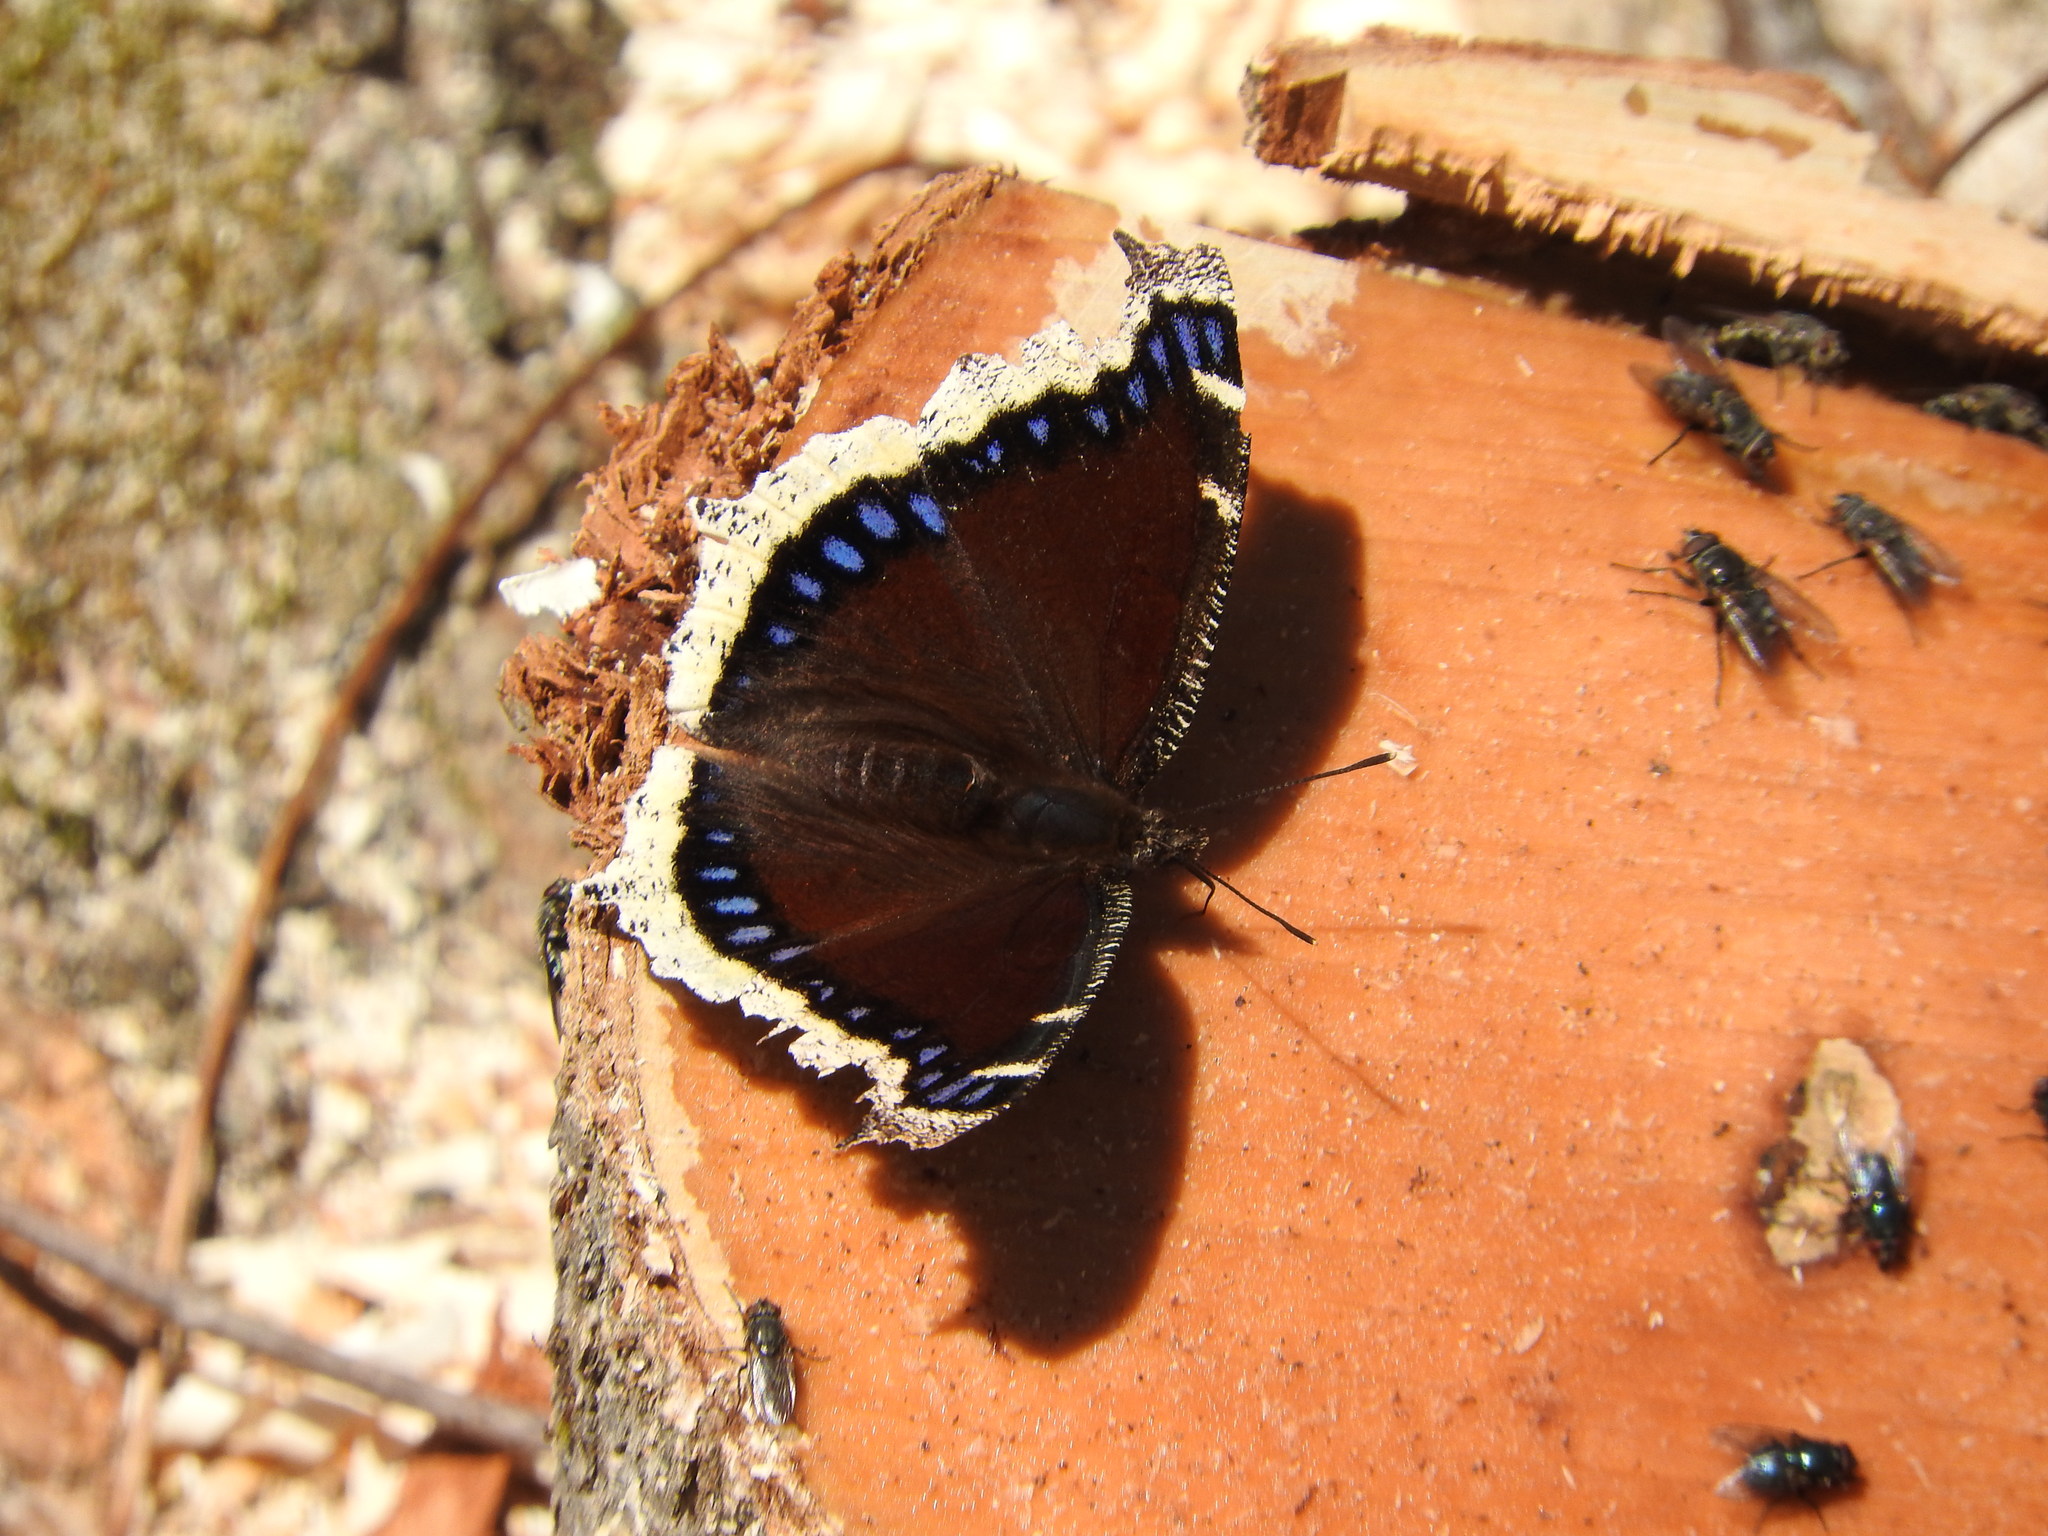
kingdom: Animalia
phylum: Arthropoda
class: Insecta
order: Lepidoptera
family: Nymphalidae
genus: Nymphalis
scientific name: Nymphalis antiopa
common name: Camberwell beauty
